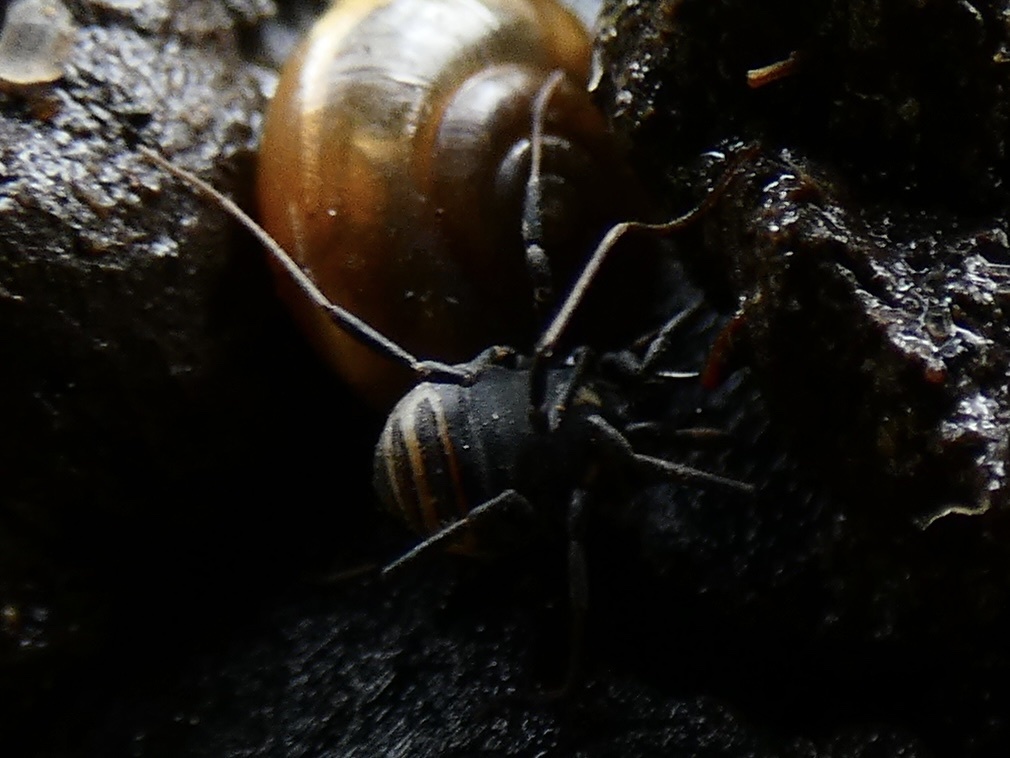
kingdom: Animalia
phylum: Arthropoda
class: Arachnida
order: Opiliones
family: Nemastomatidae
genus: Nemastoma
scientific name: Nemastoma bimaculatum
